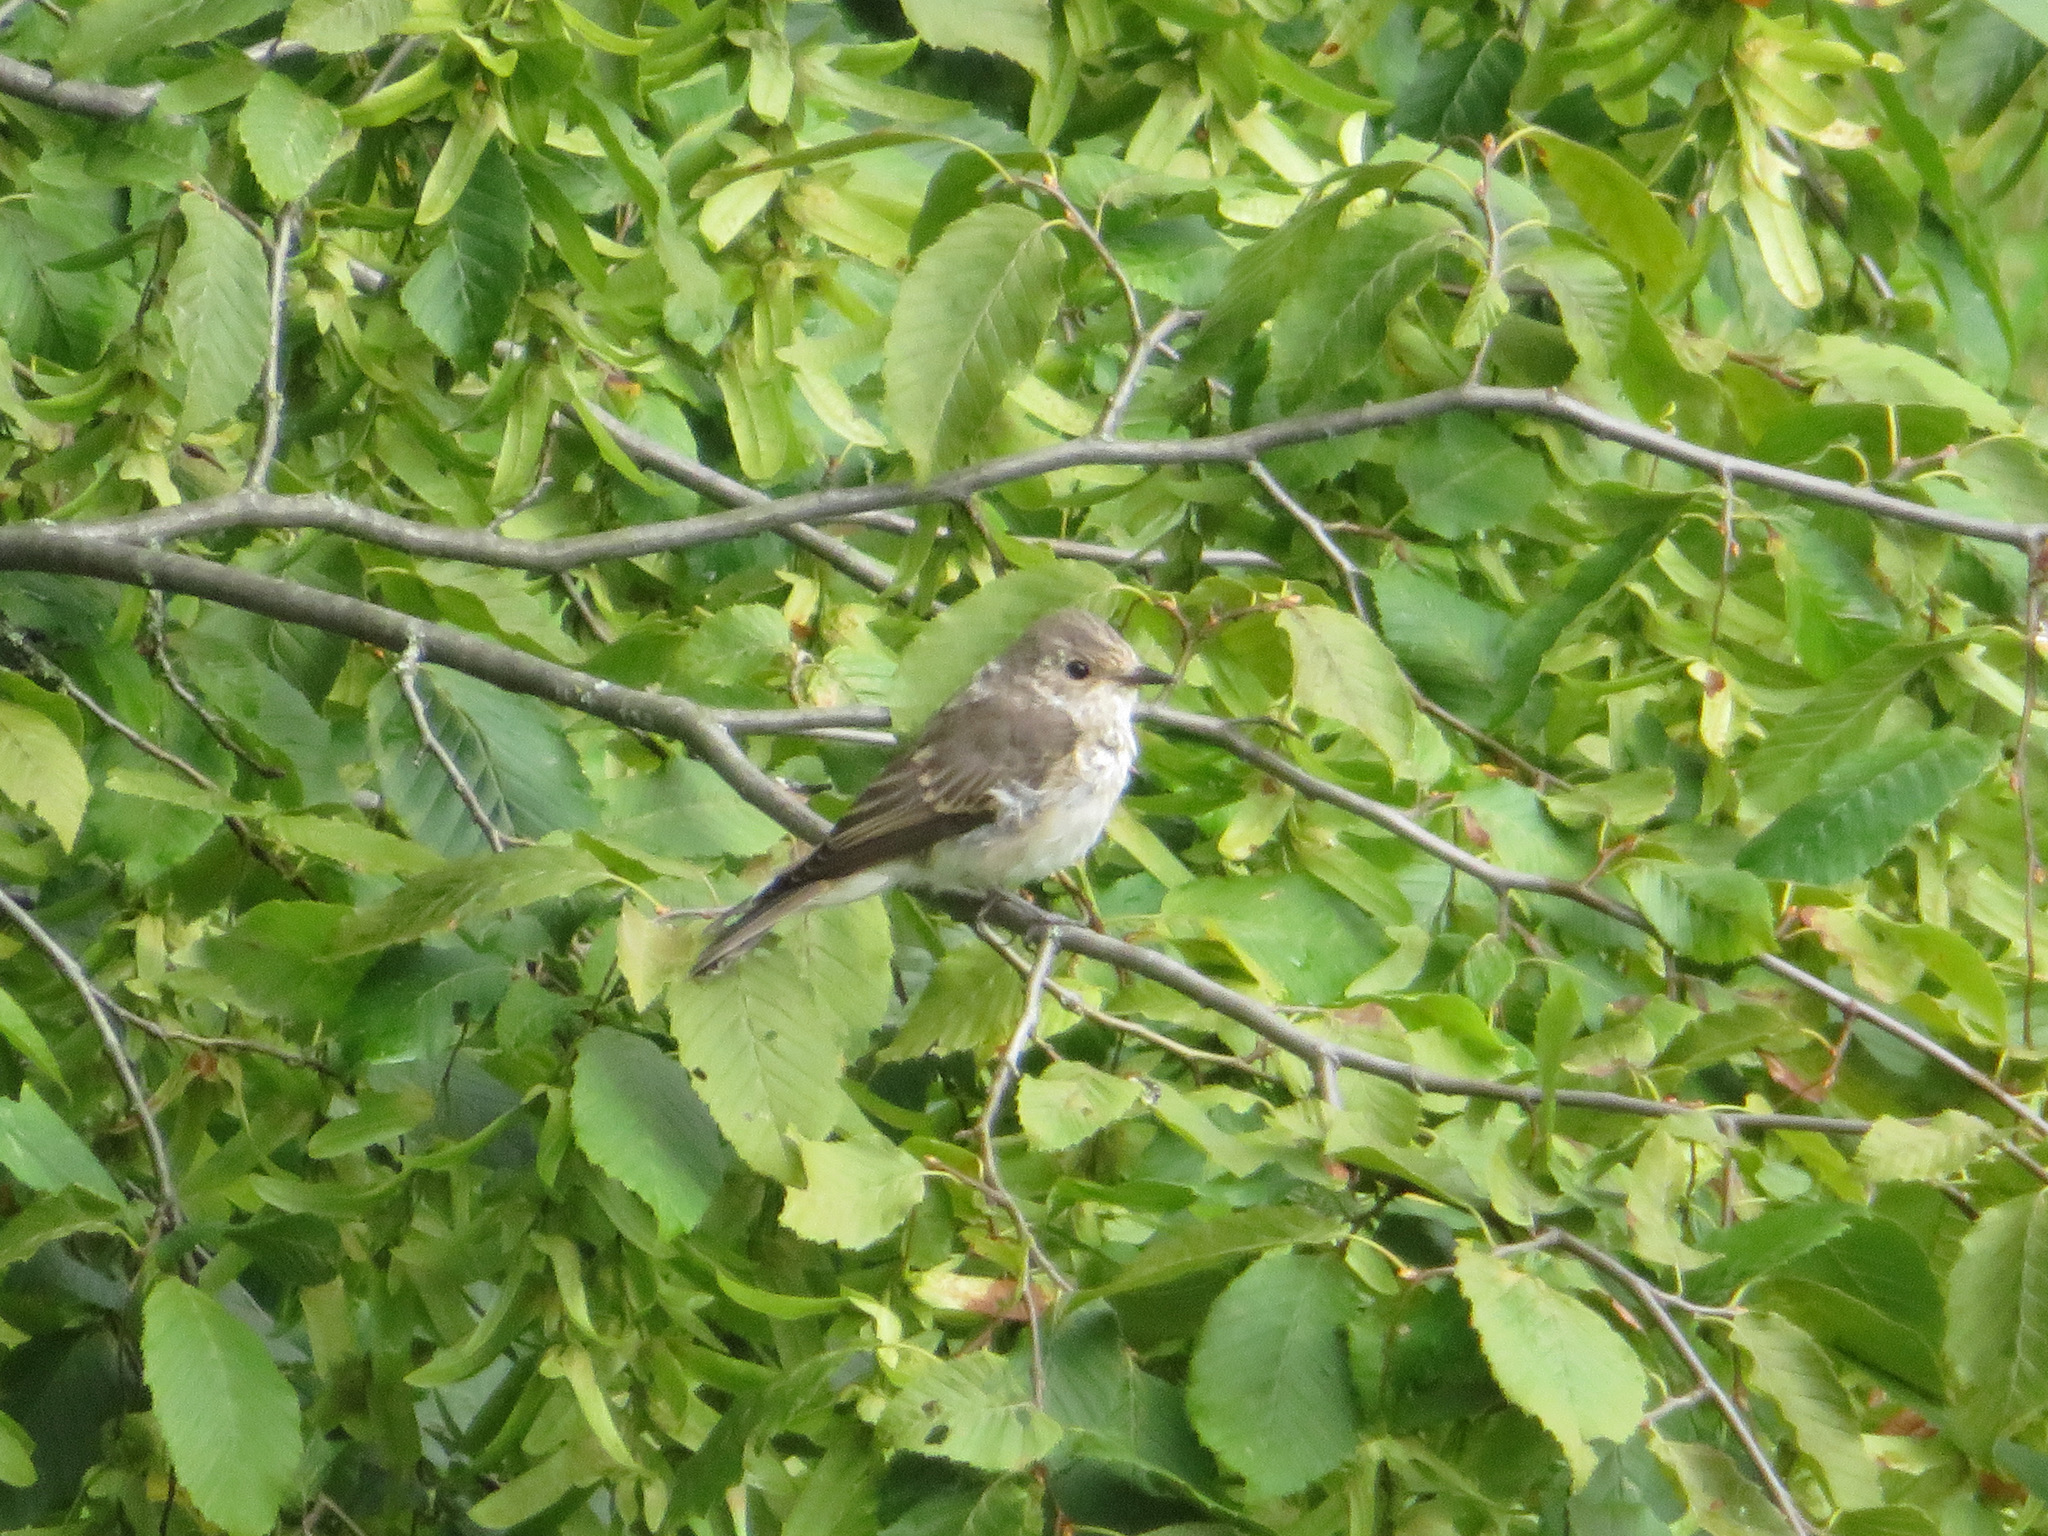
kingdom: Animalia
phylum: Chordata
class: Aves
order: Passeriformes
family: Muscicapidae
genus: Muscicapa
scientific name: Muscicapa striata
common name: Spotted flycatcher
